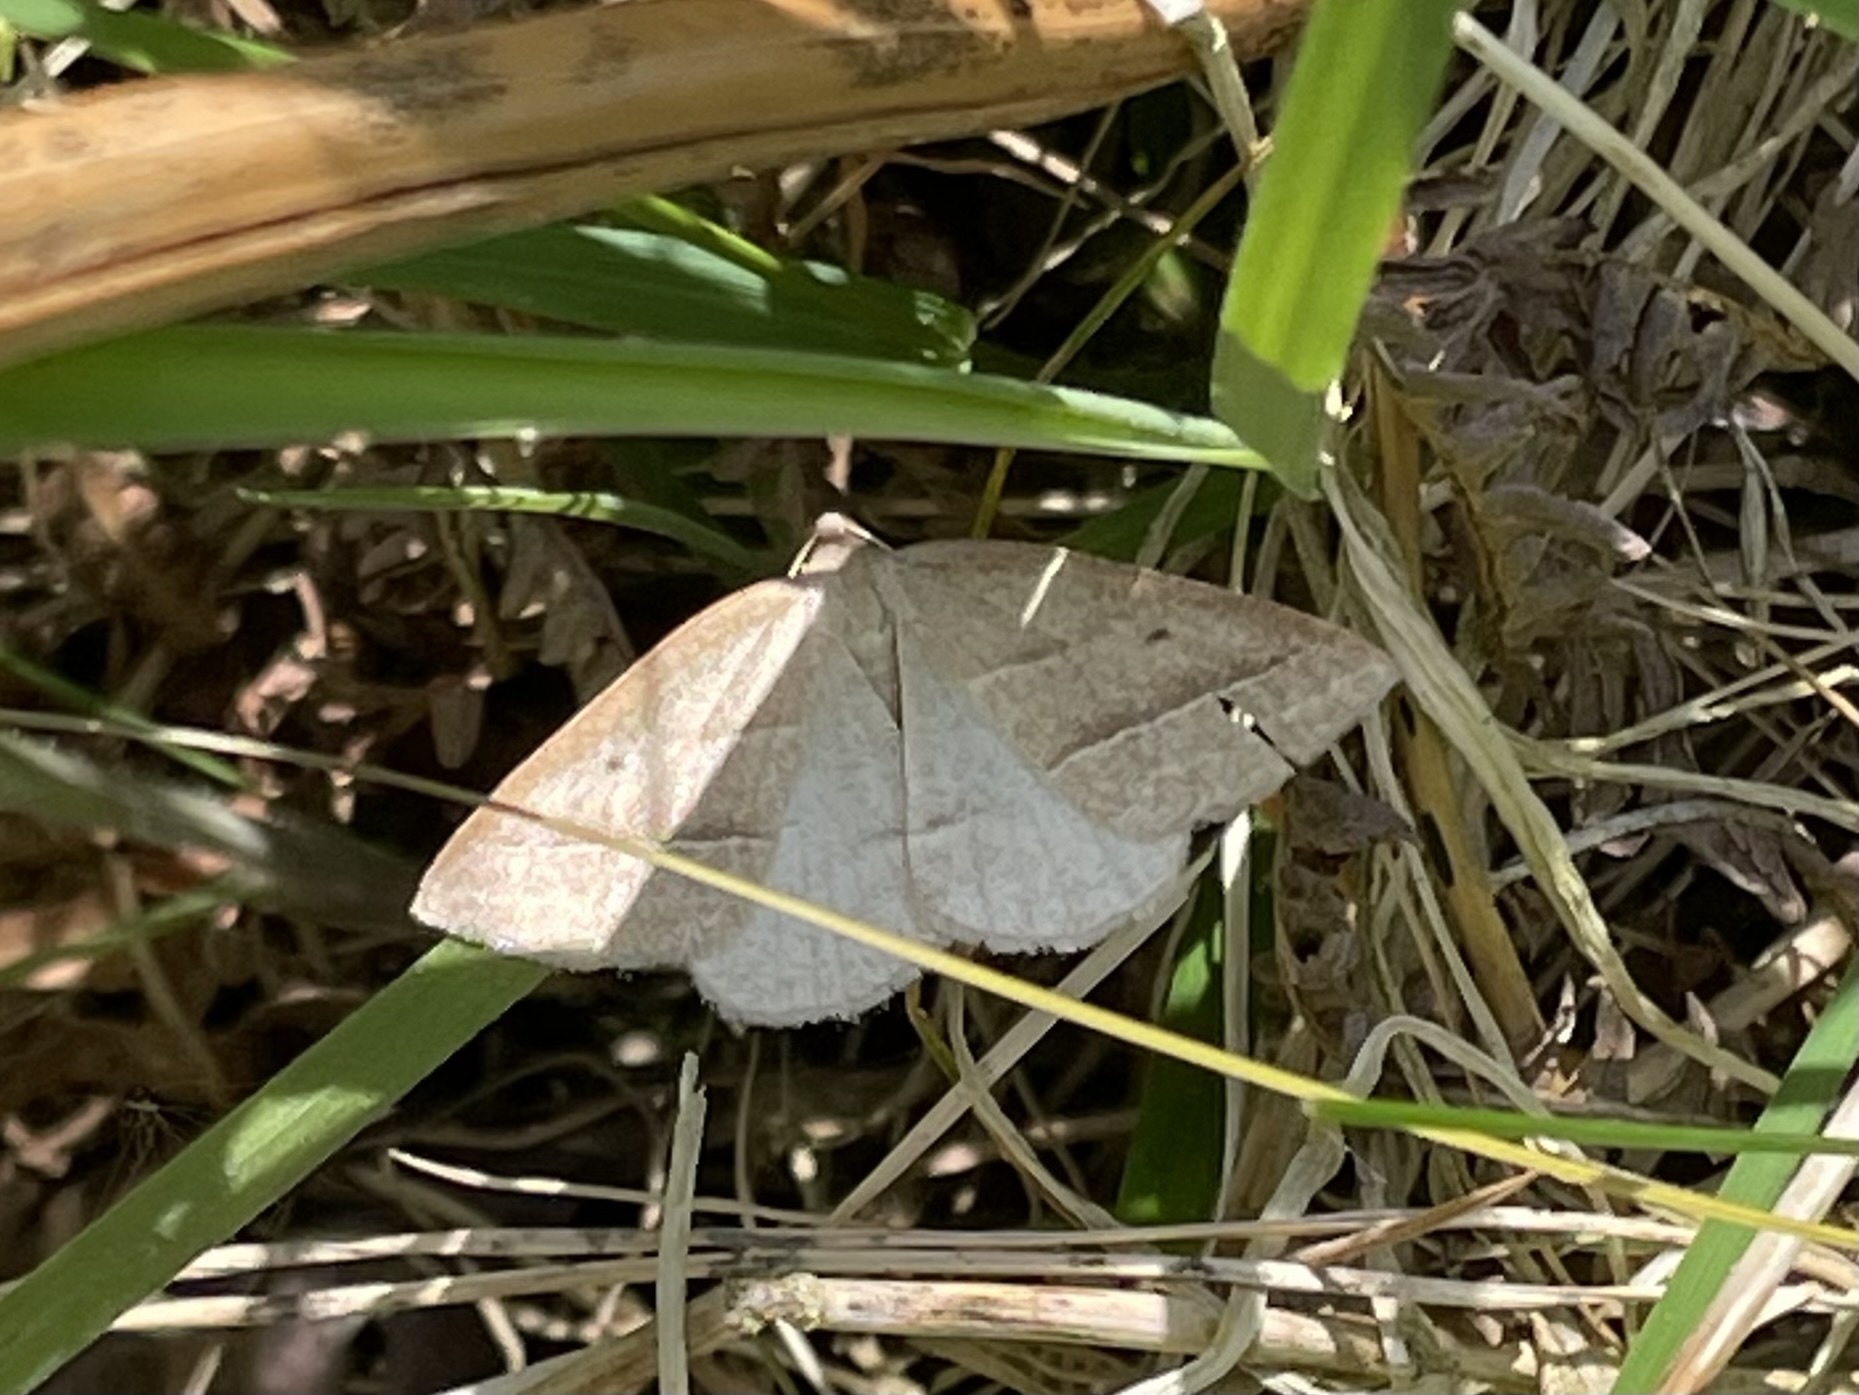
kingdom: Animalia
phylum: Arthropoda
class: Insecta
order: Lepidoptera
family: Pterophoridae
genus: Pterophorus
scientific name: Pterophorus Petrophora chlorosata
